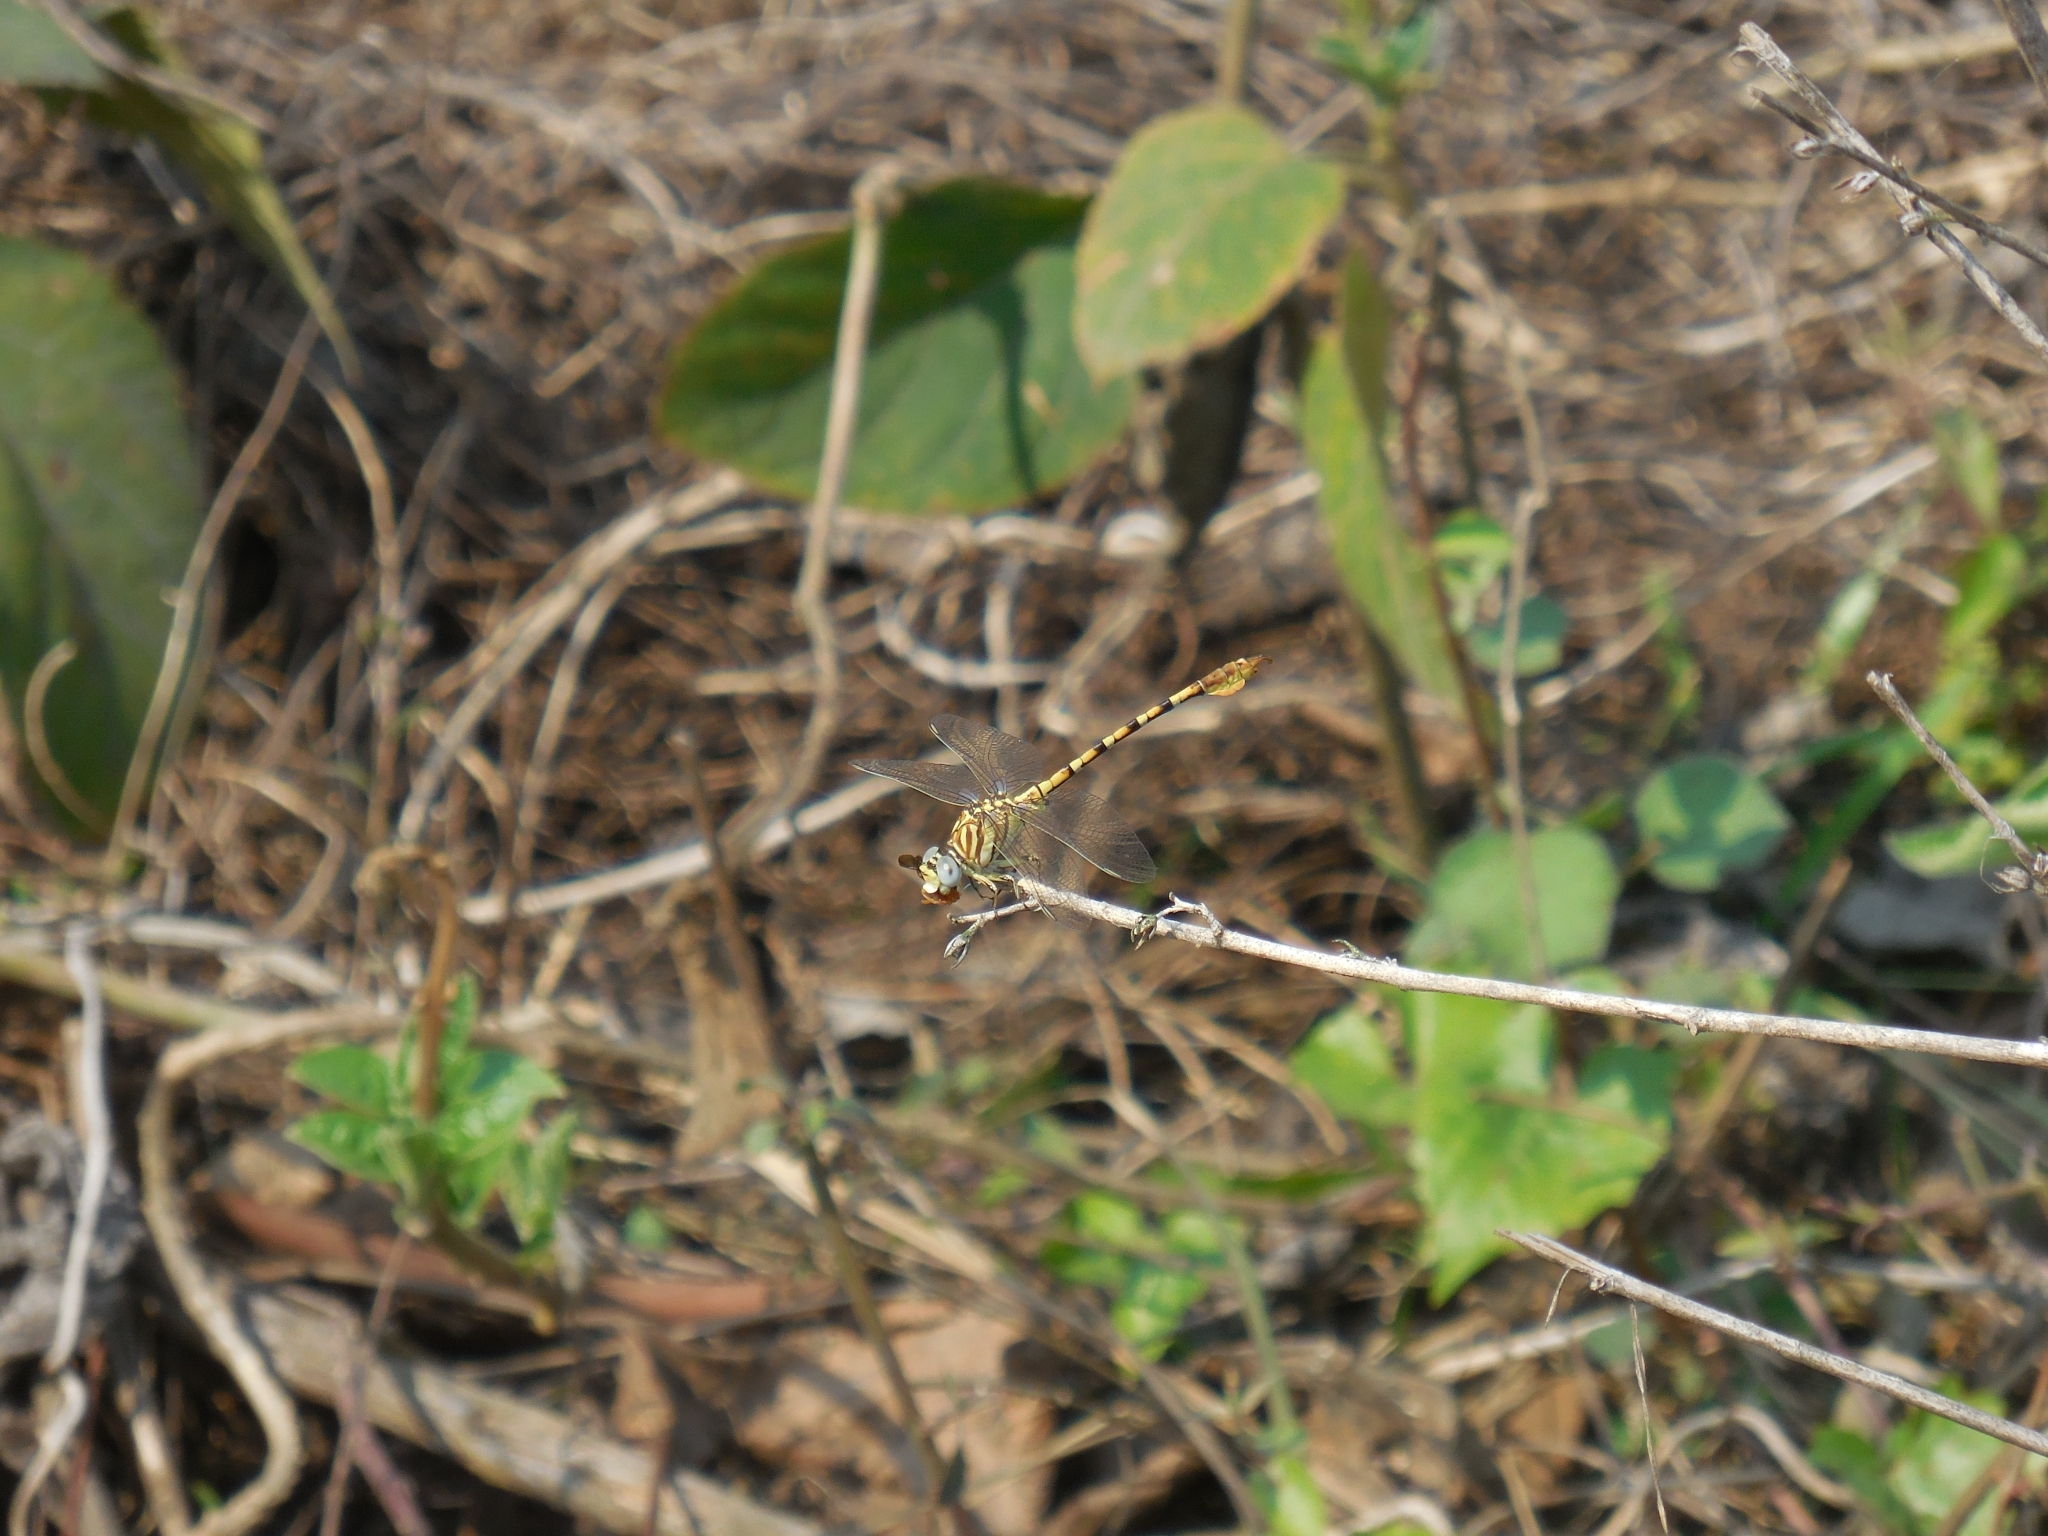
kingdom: Animalia
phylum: Arthropoda
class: Insecta
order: Odonata
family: Gomphidae
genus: Paragomphus
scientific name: Paragomphus lineatus
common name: Lined hooktail
